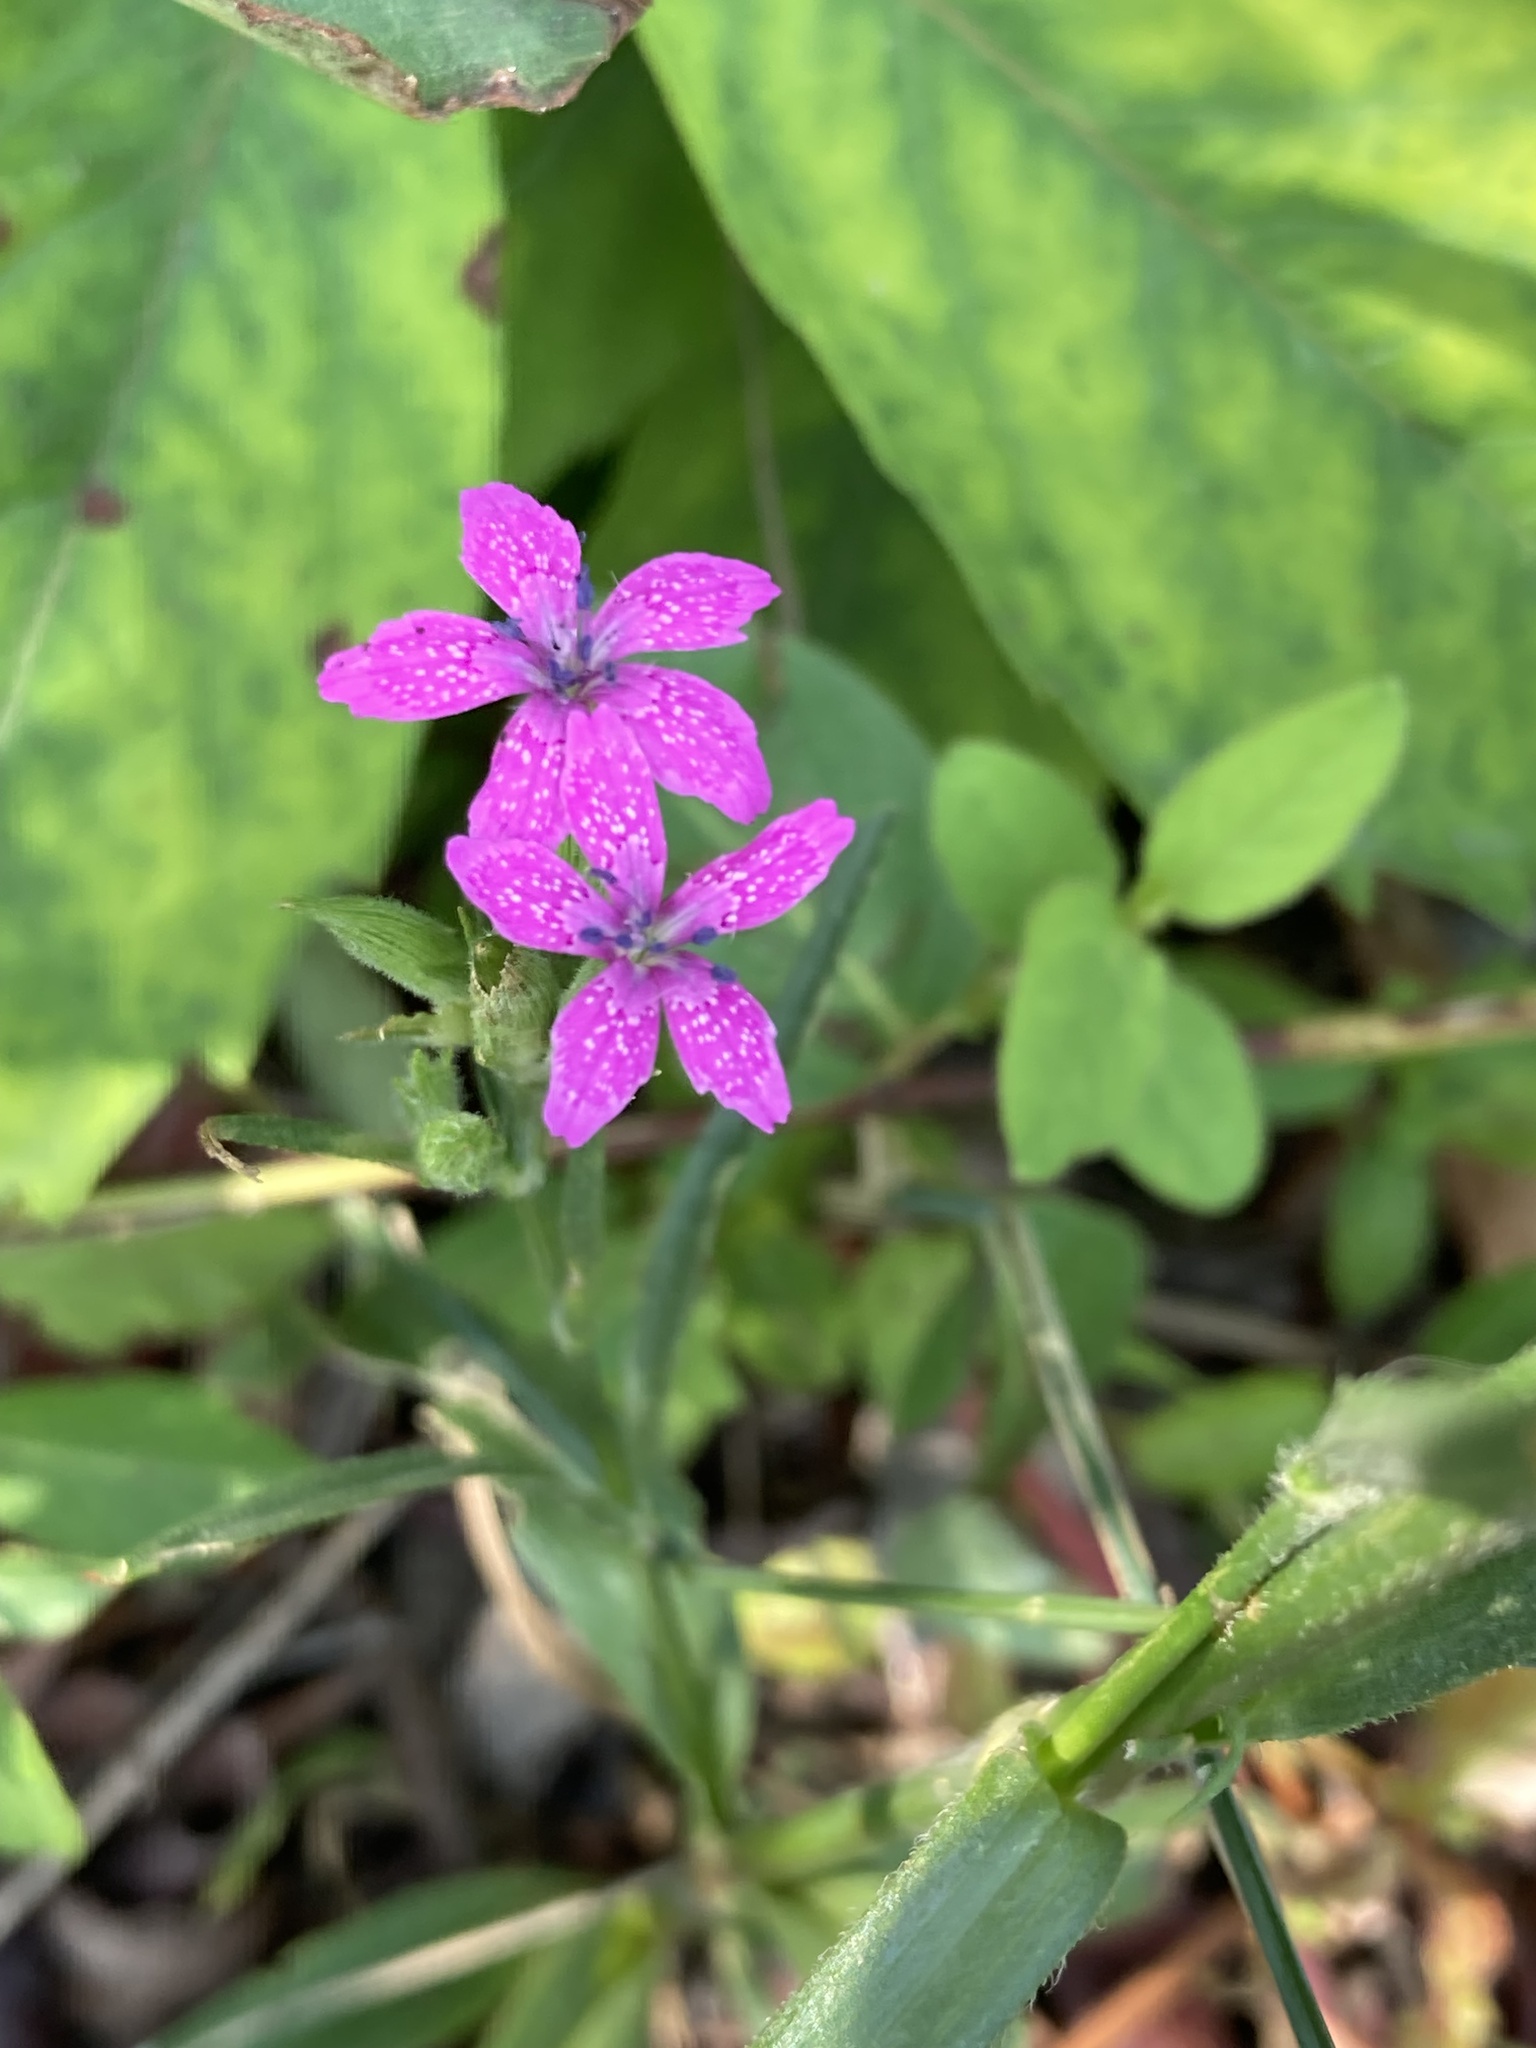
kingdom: Plantae
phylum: Tracheophyta
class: Magnoliopsida
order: Caryophyllales
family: Caryophyllaceae
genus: Dianthus
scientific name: Dianthus armeria
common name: Deptford pink
